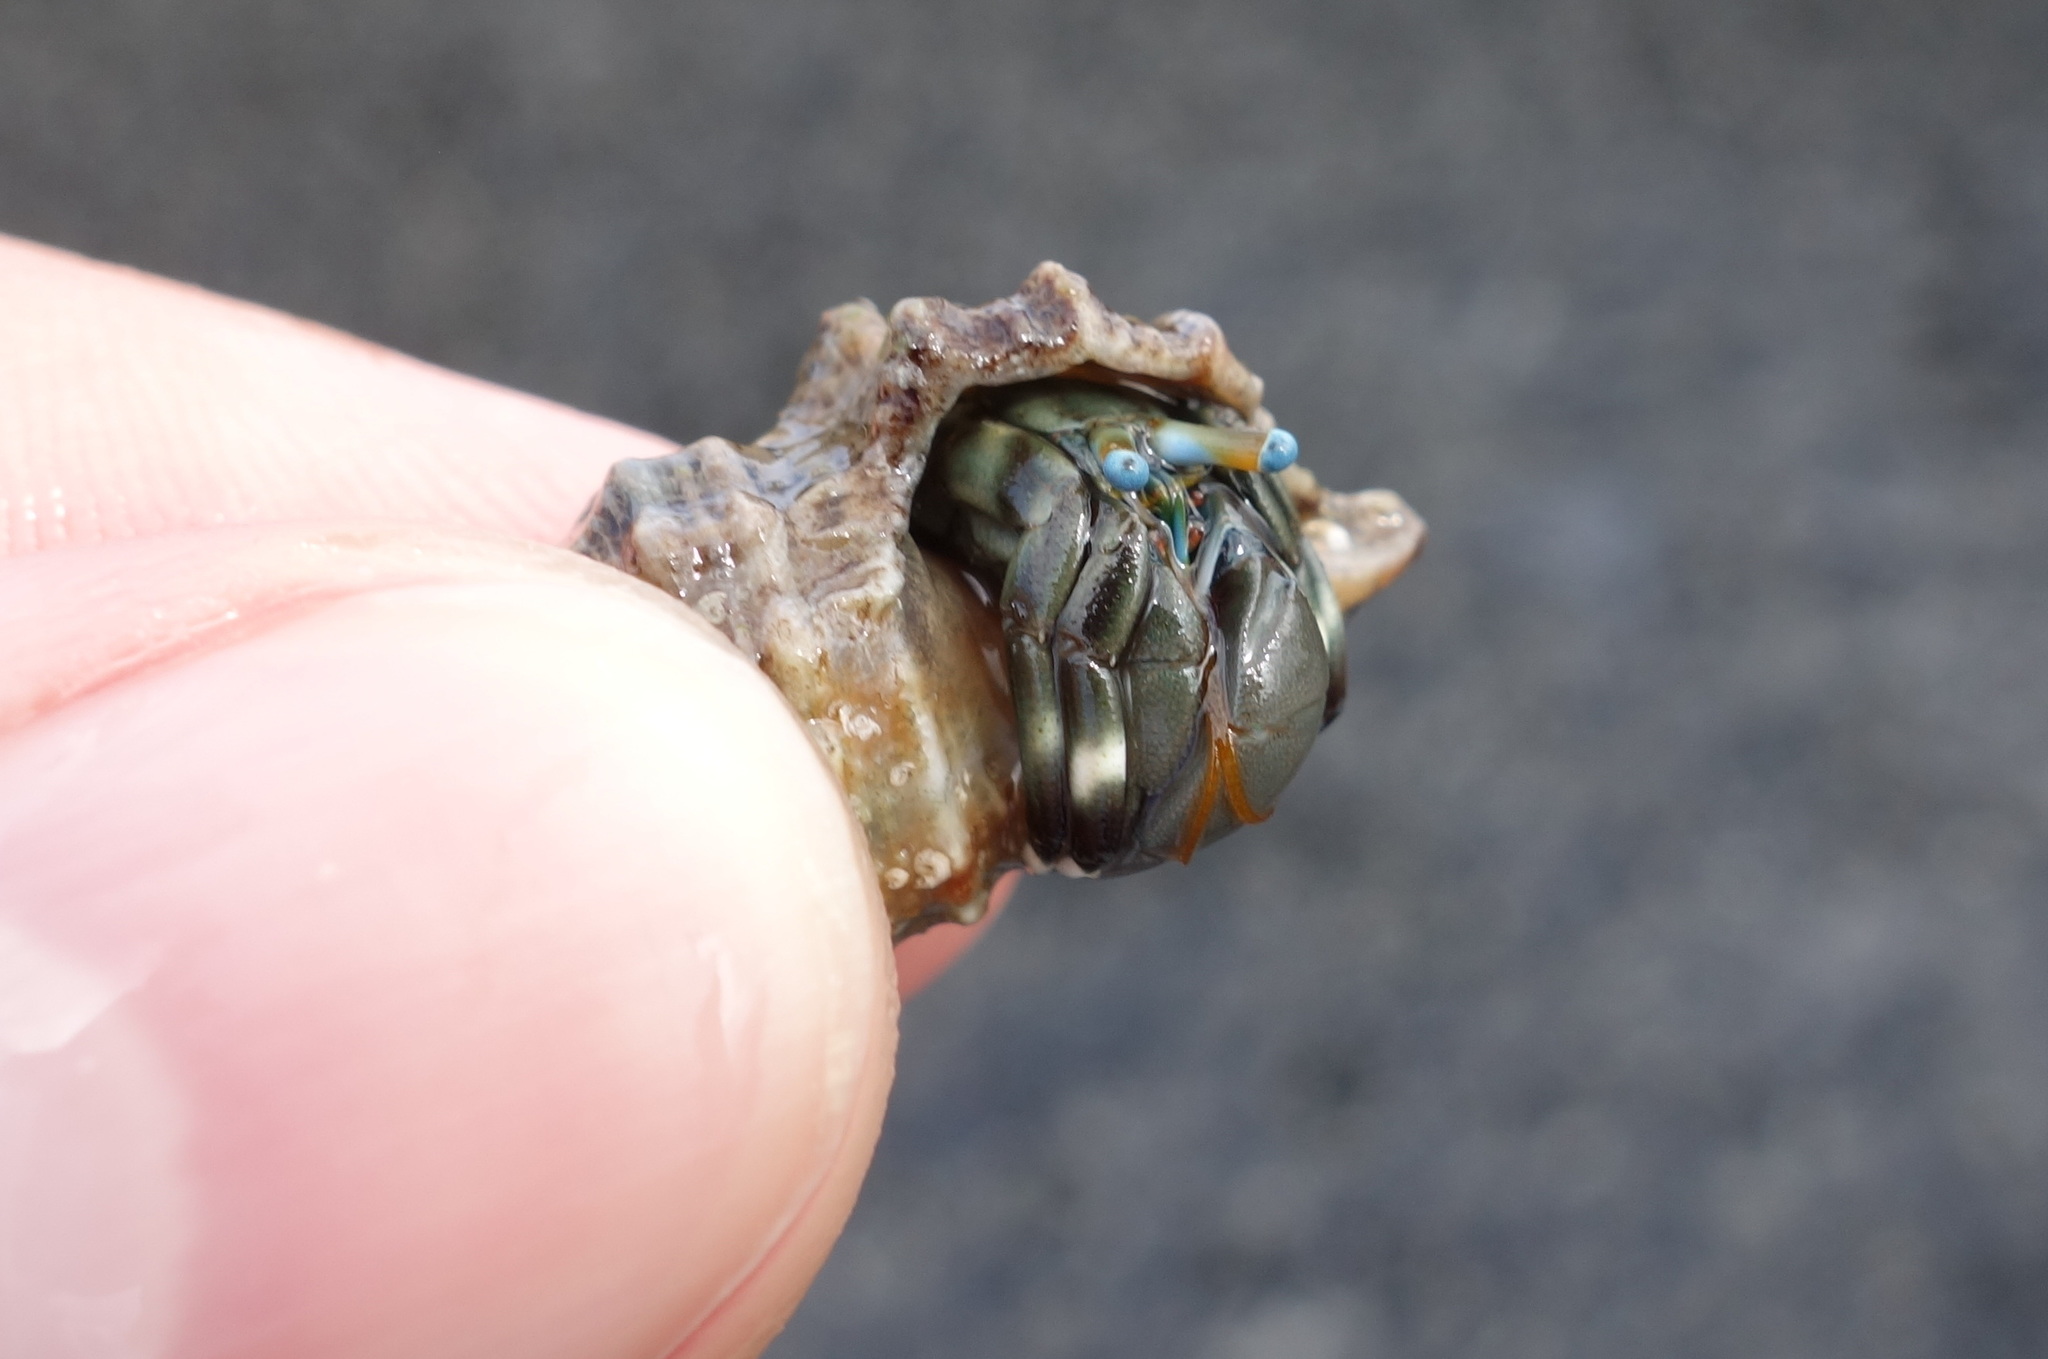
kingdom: Animalia
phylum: Arthropoda
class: Malacostraca
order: Decapoda
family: Diogenidae
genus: Calcinus
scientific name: Calcinus laevimanus
